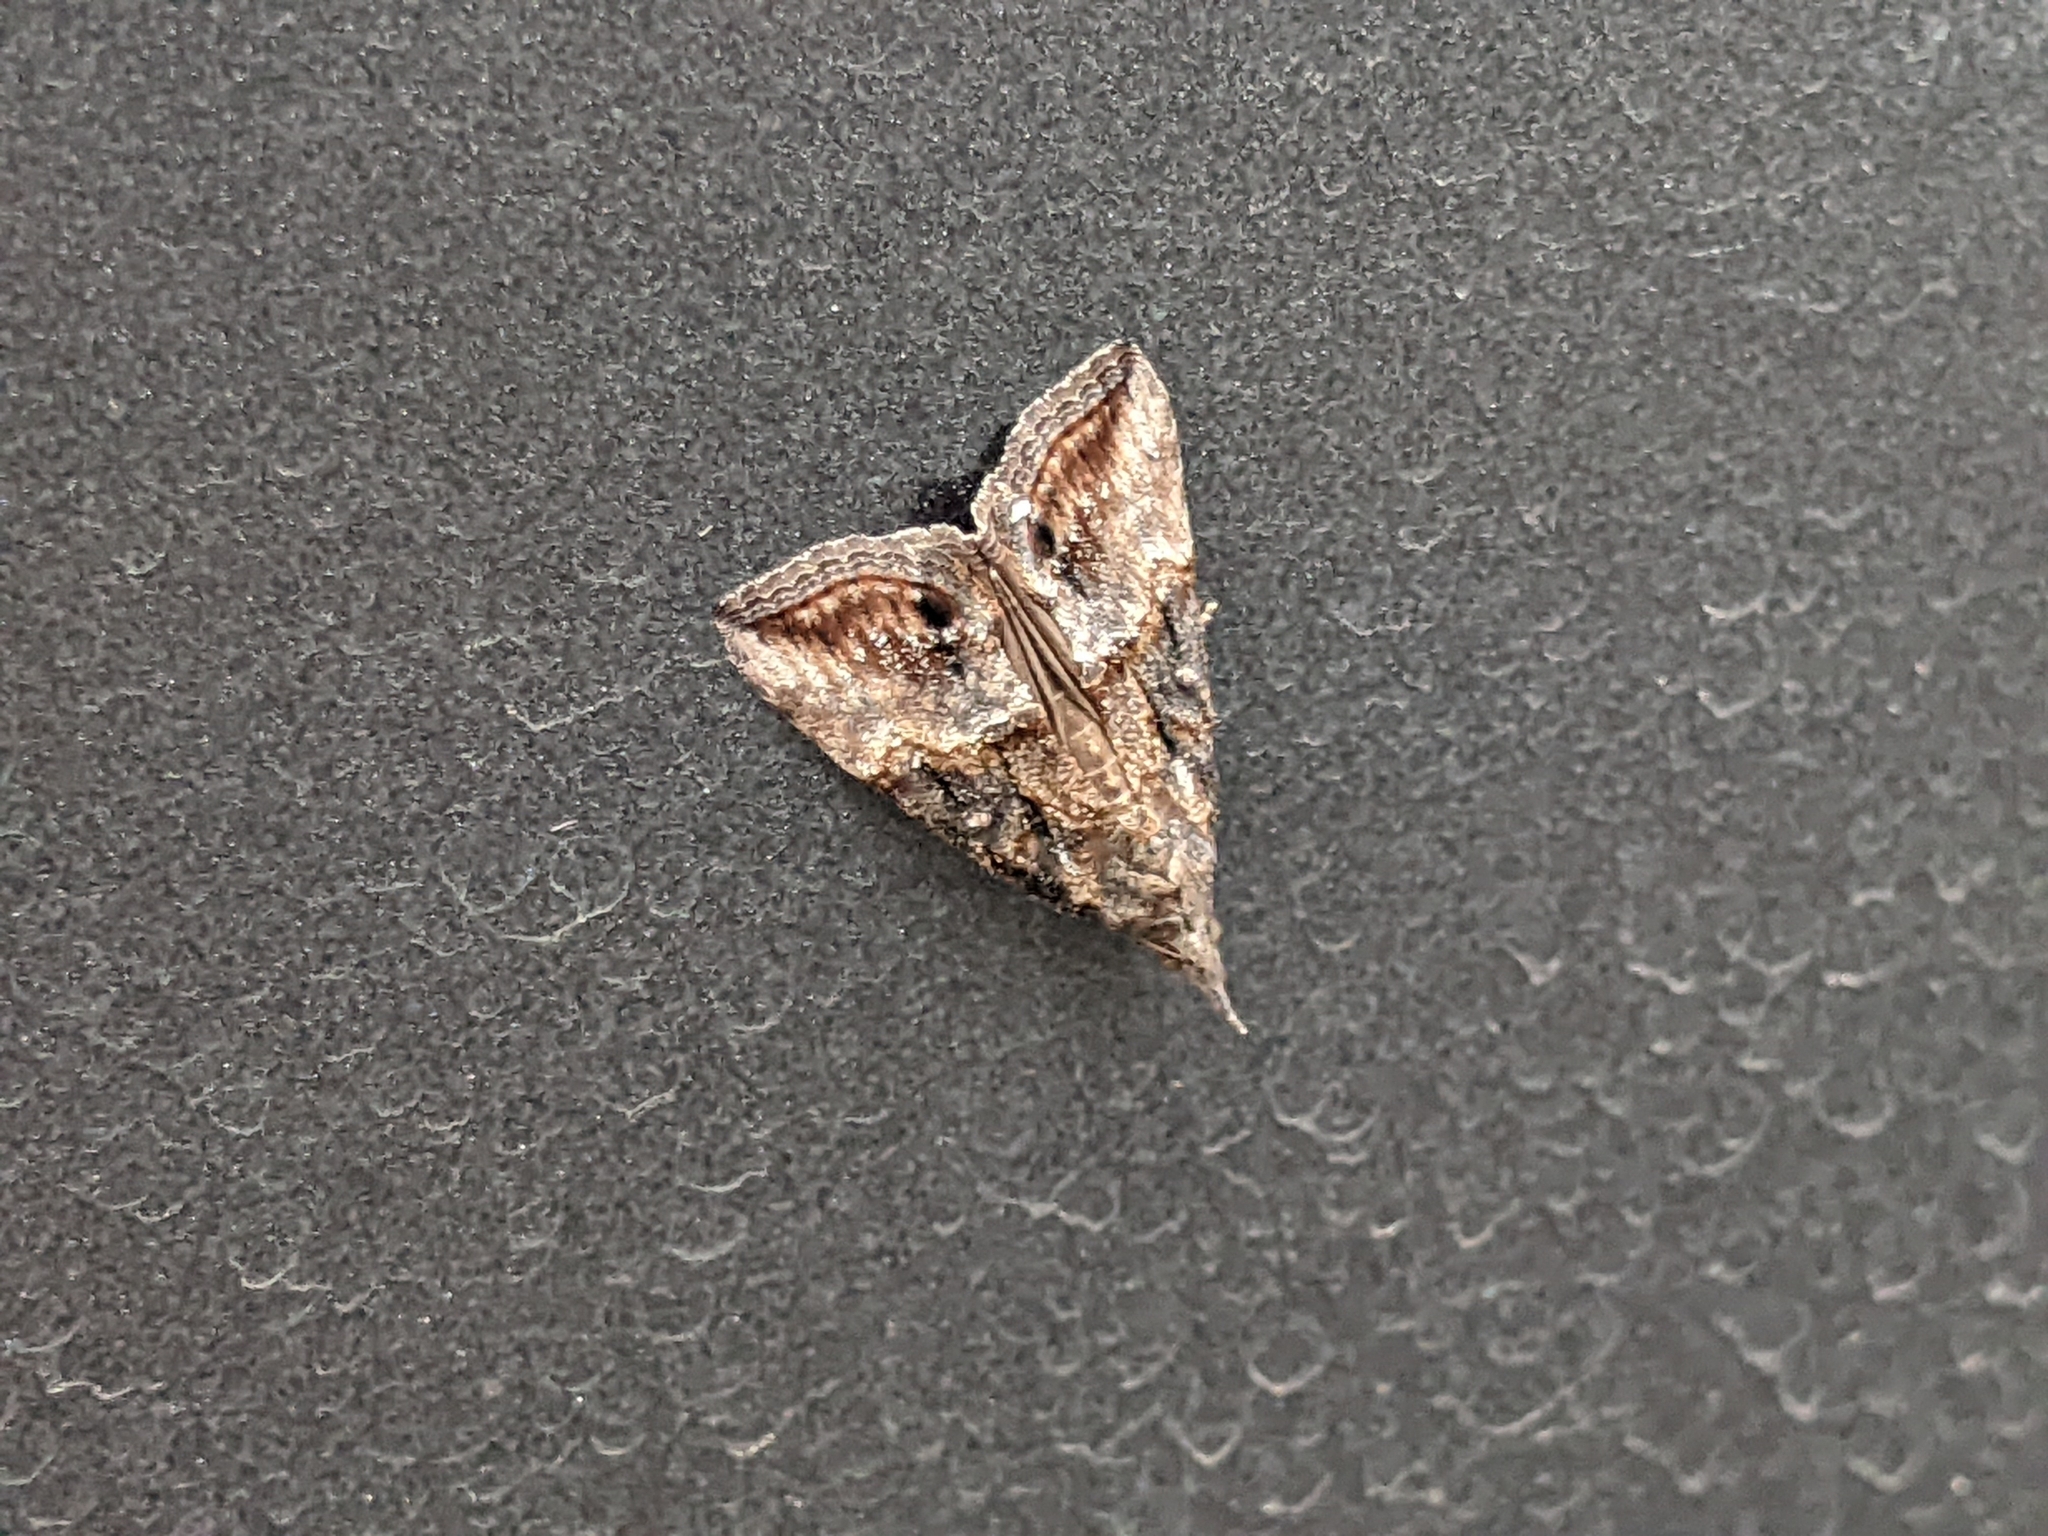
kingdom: Animalia
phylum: Arthropoda
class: Insecta
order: Lepidoptera
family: Erebidae
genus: Hypena
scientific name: Hypena scabra
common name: Green cloverworm
